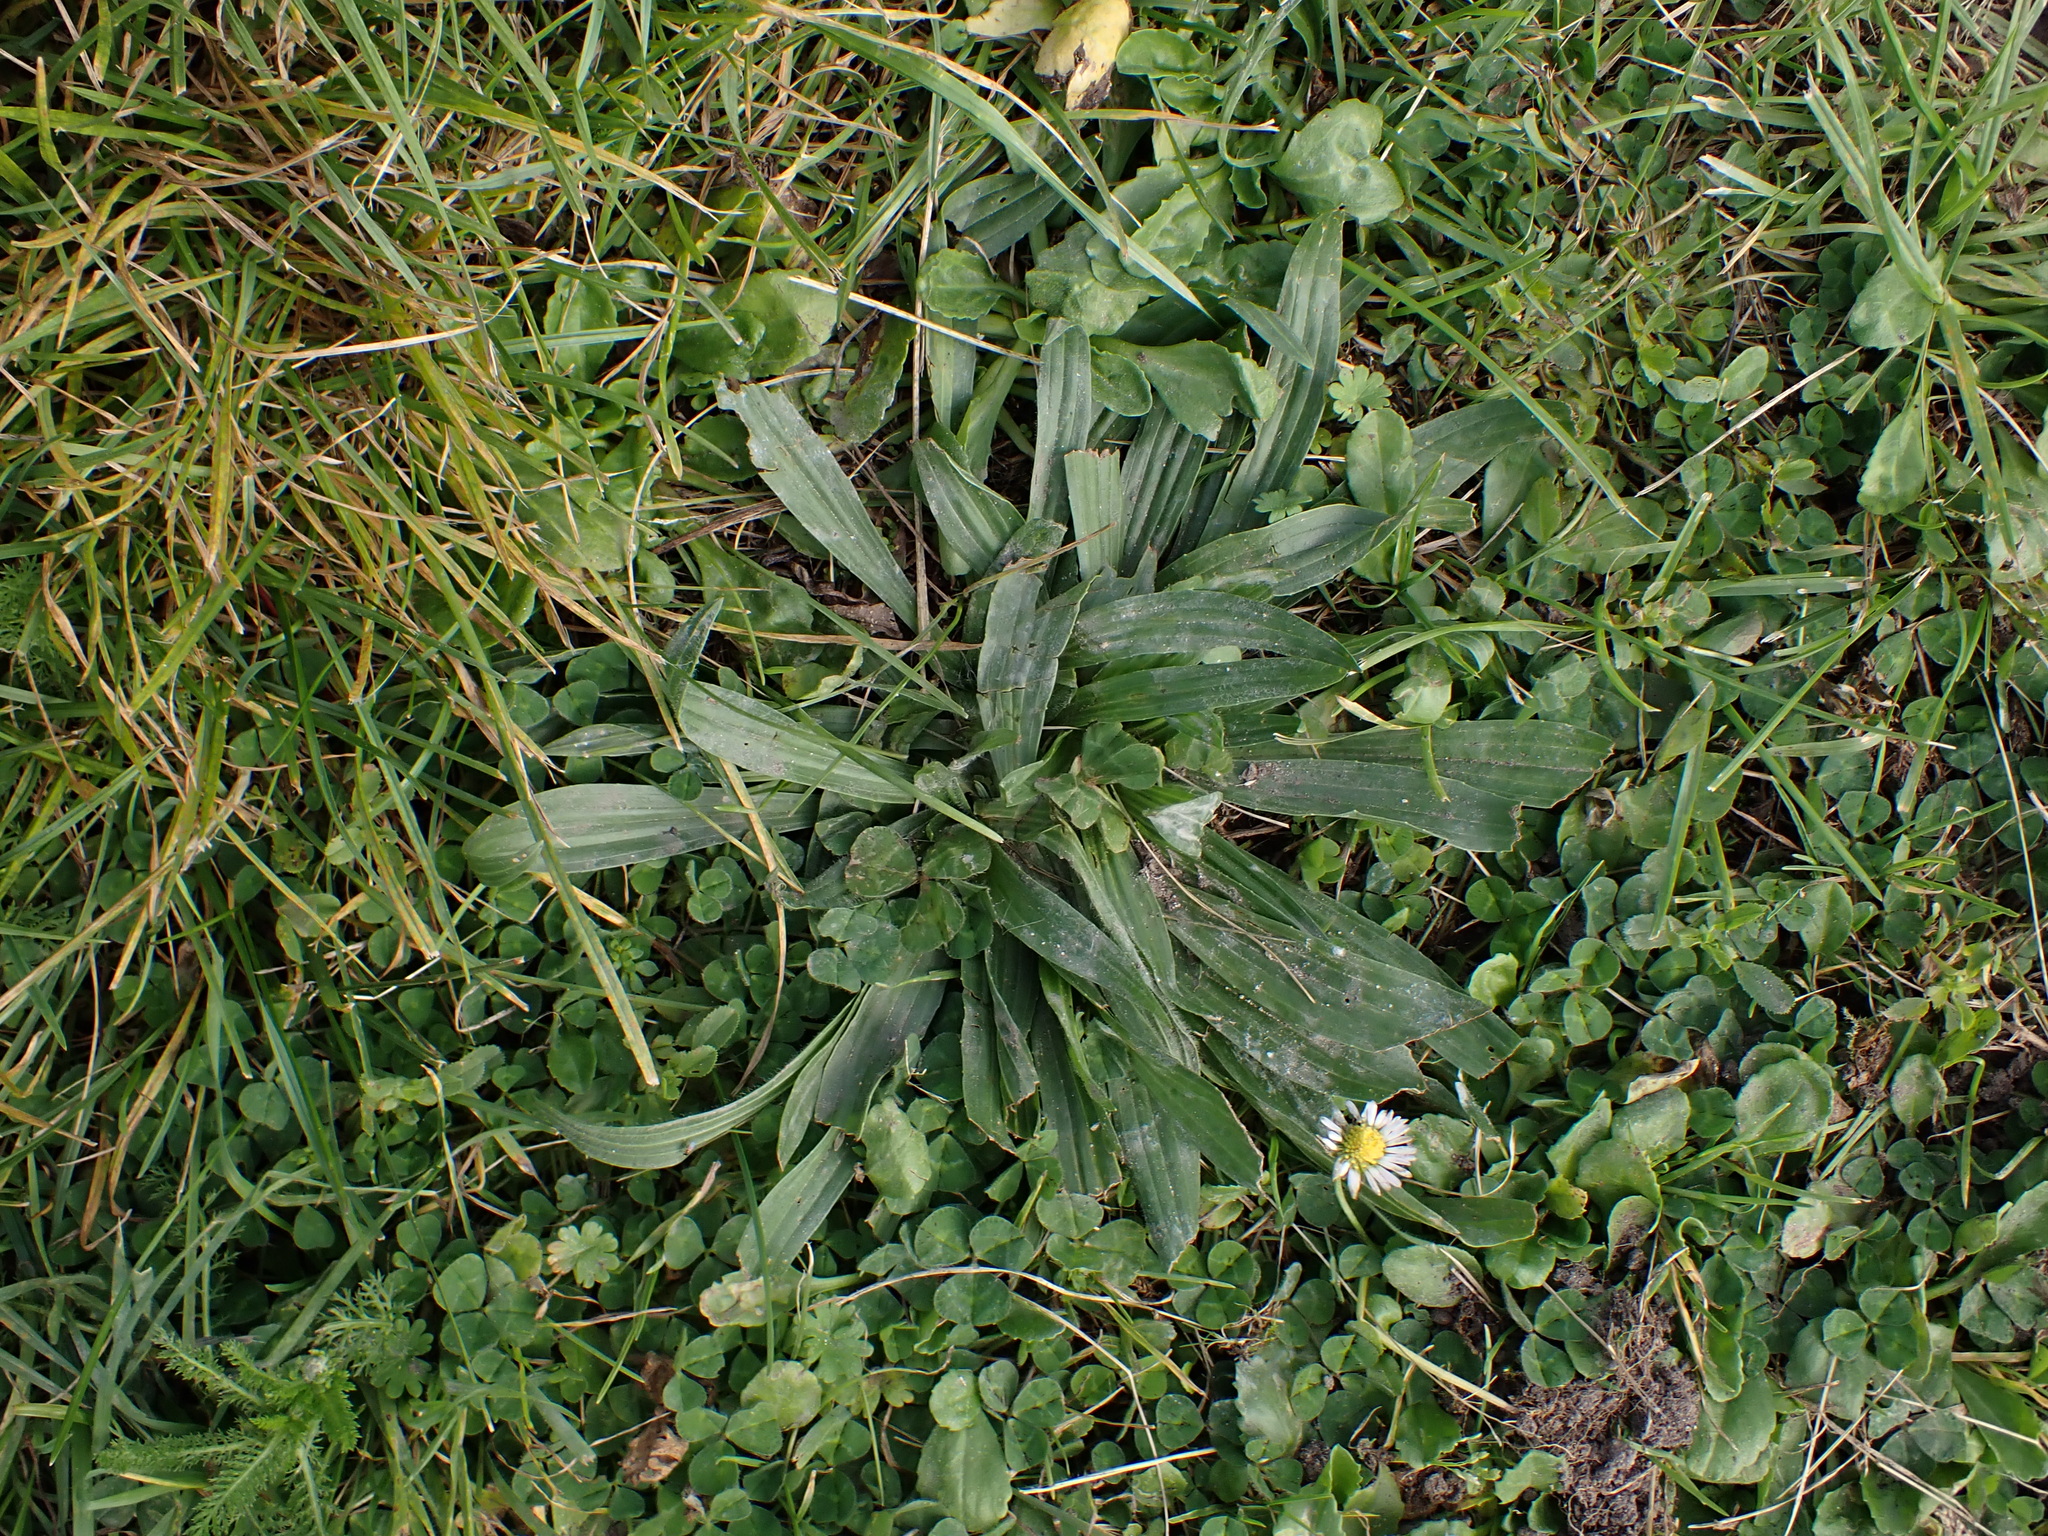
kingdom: Plantae
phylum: Tracheophyta
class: Magnoliopsida
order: Lamiales
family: Plantaginaceae
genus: Plantago
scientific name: Plantago lanceolata
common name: Ribwort plantain
